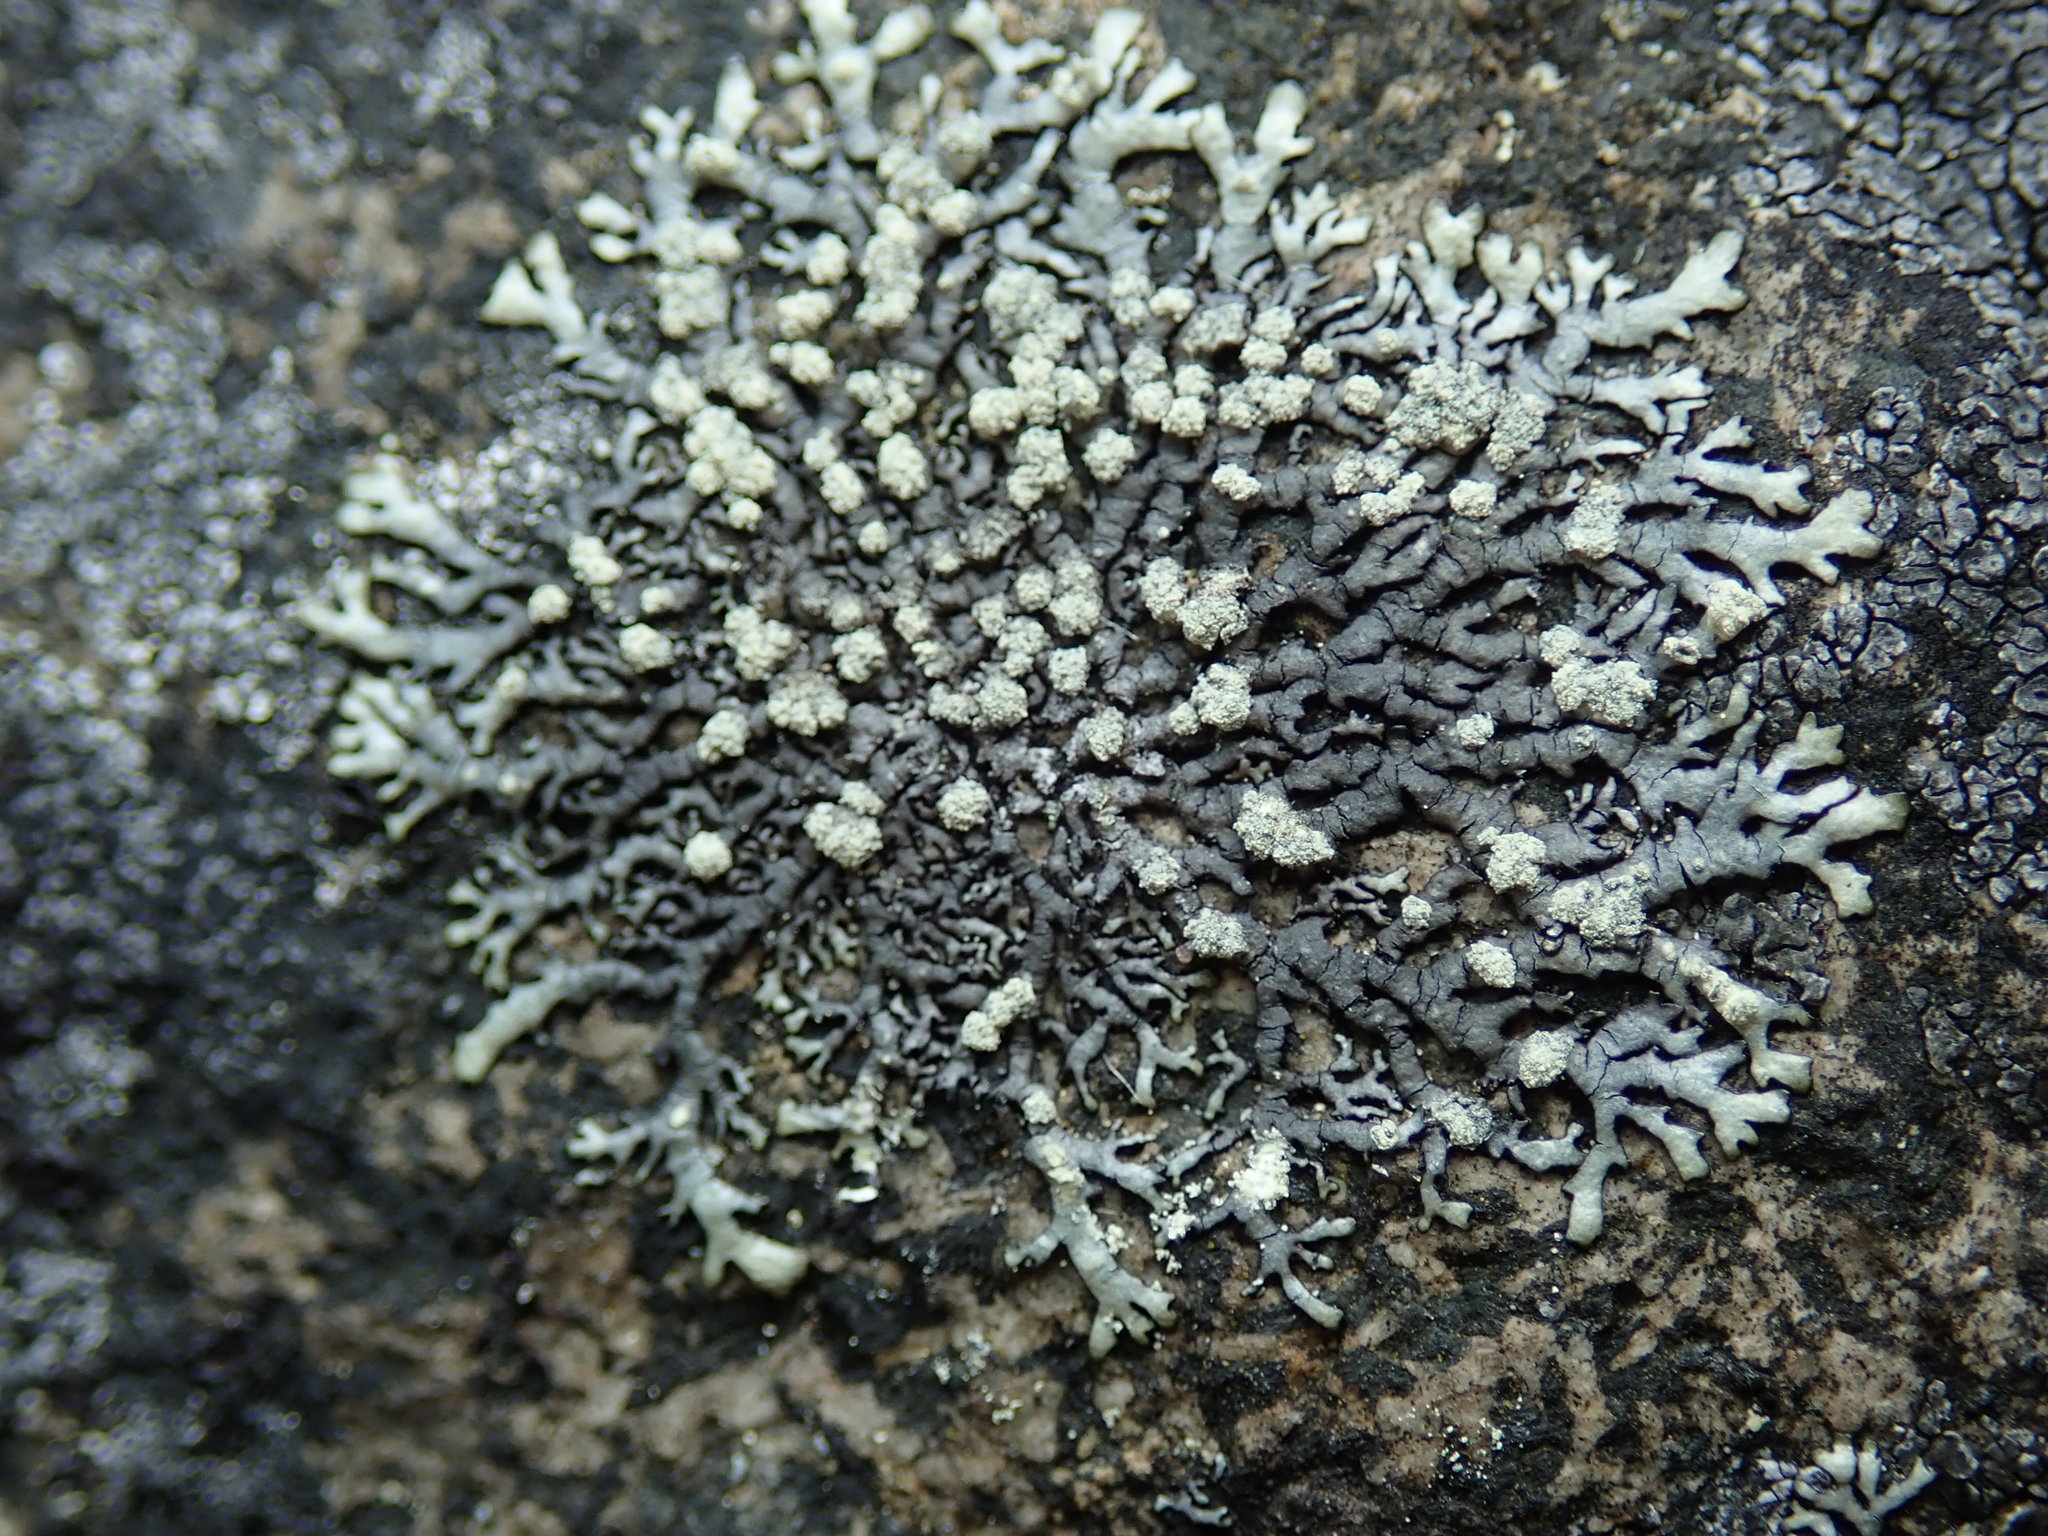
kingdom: Fungi
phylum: Ascomycota
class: Lecanoromycetes
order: Lecanorales
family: Parmeliaceae
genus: Xanthoparmelia
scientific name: Xanthoparmelia mougeotii
